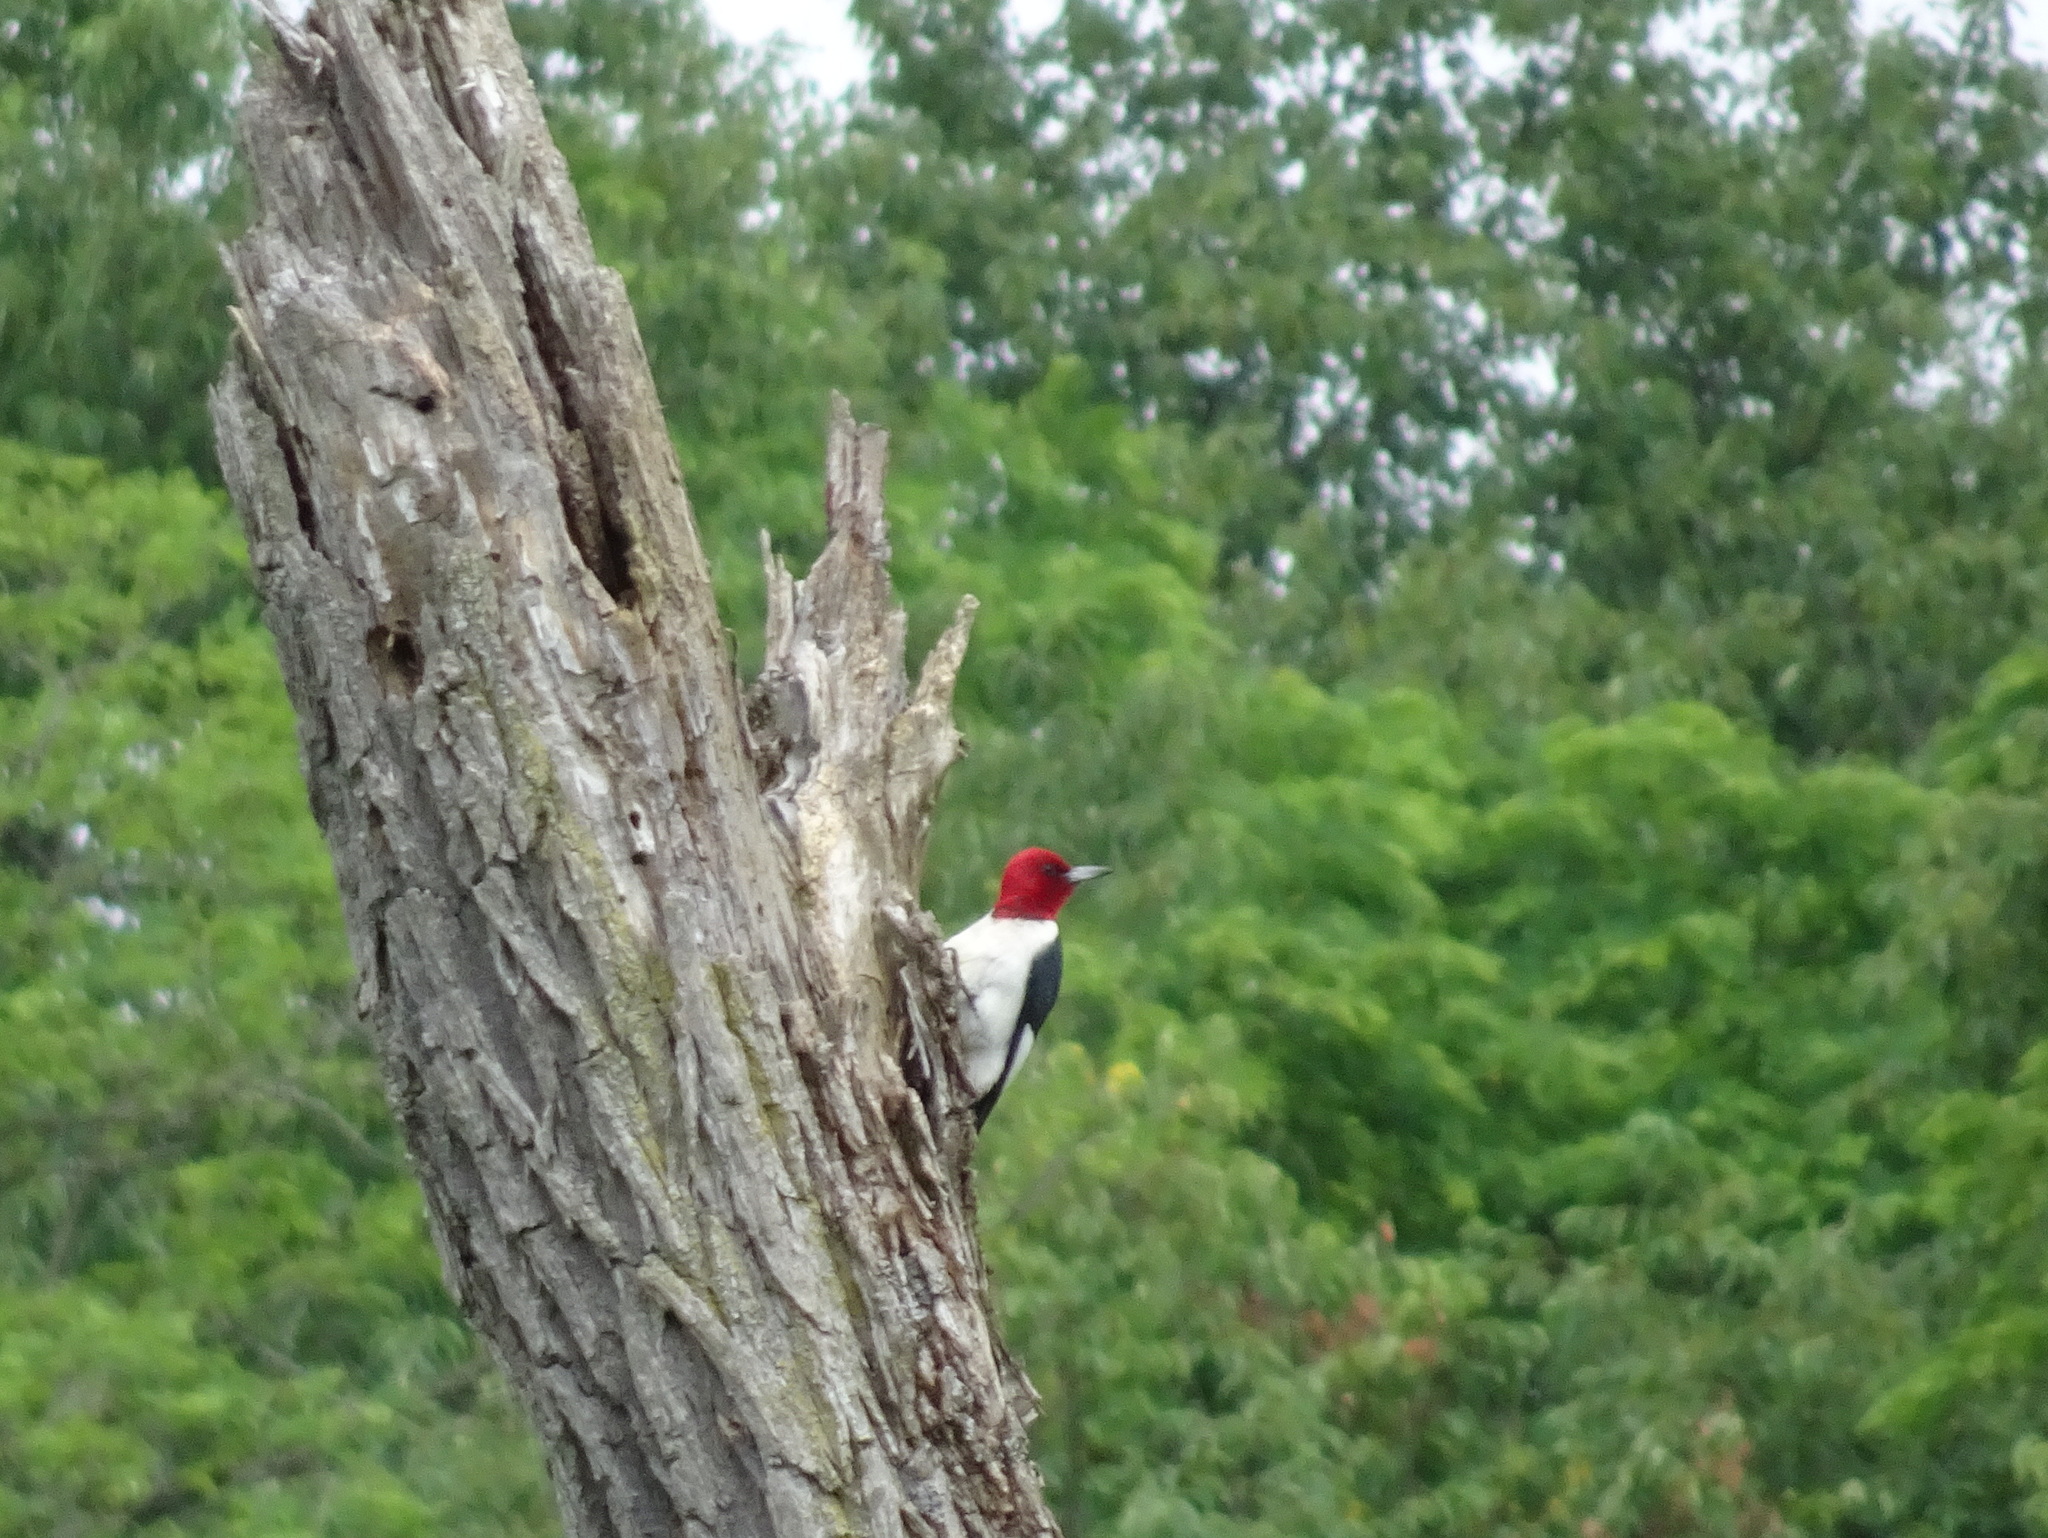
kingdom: Animalia
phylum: Chordata
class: Aves
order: Piciformes
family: Picidae
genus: Melanerpes
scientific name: Melanerpes erythrocephalus
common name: Red-headed woodpecker
